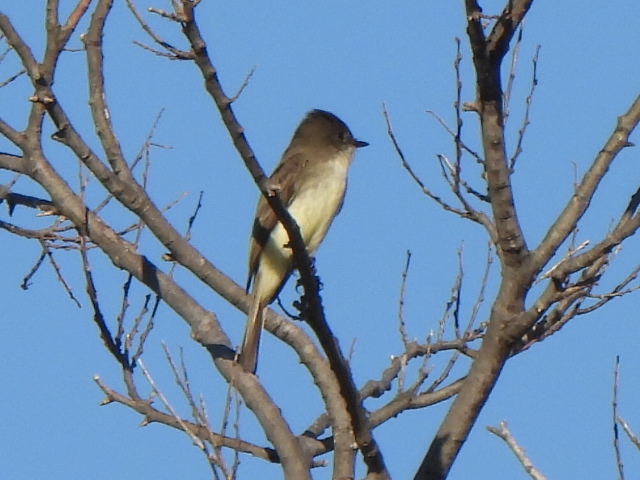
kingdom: Animalia
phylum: Chordata
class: Aves
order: Passeriformes
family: Tyrannidae
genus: Sayornis
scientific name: Sayornis phoebe
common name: Eastern phoebe
